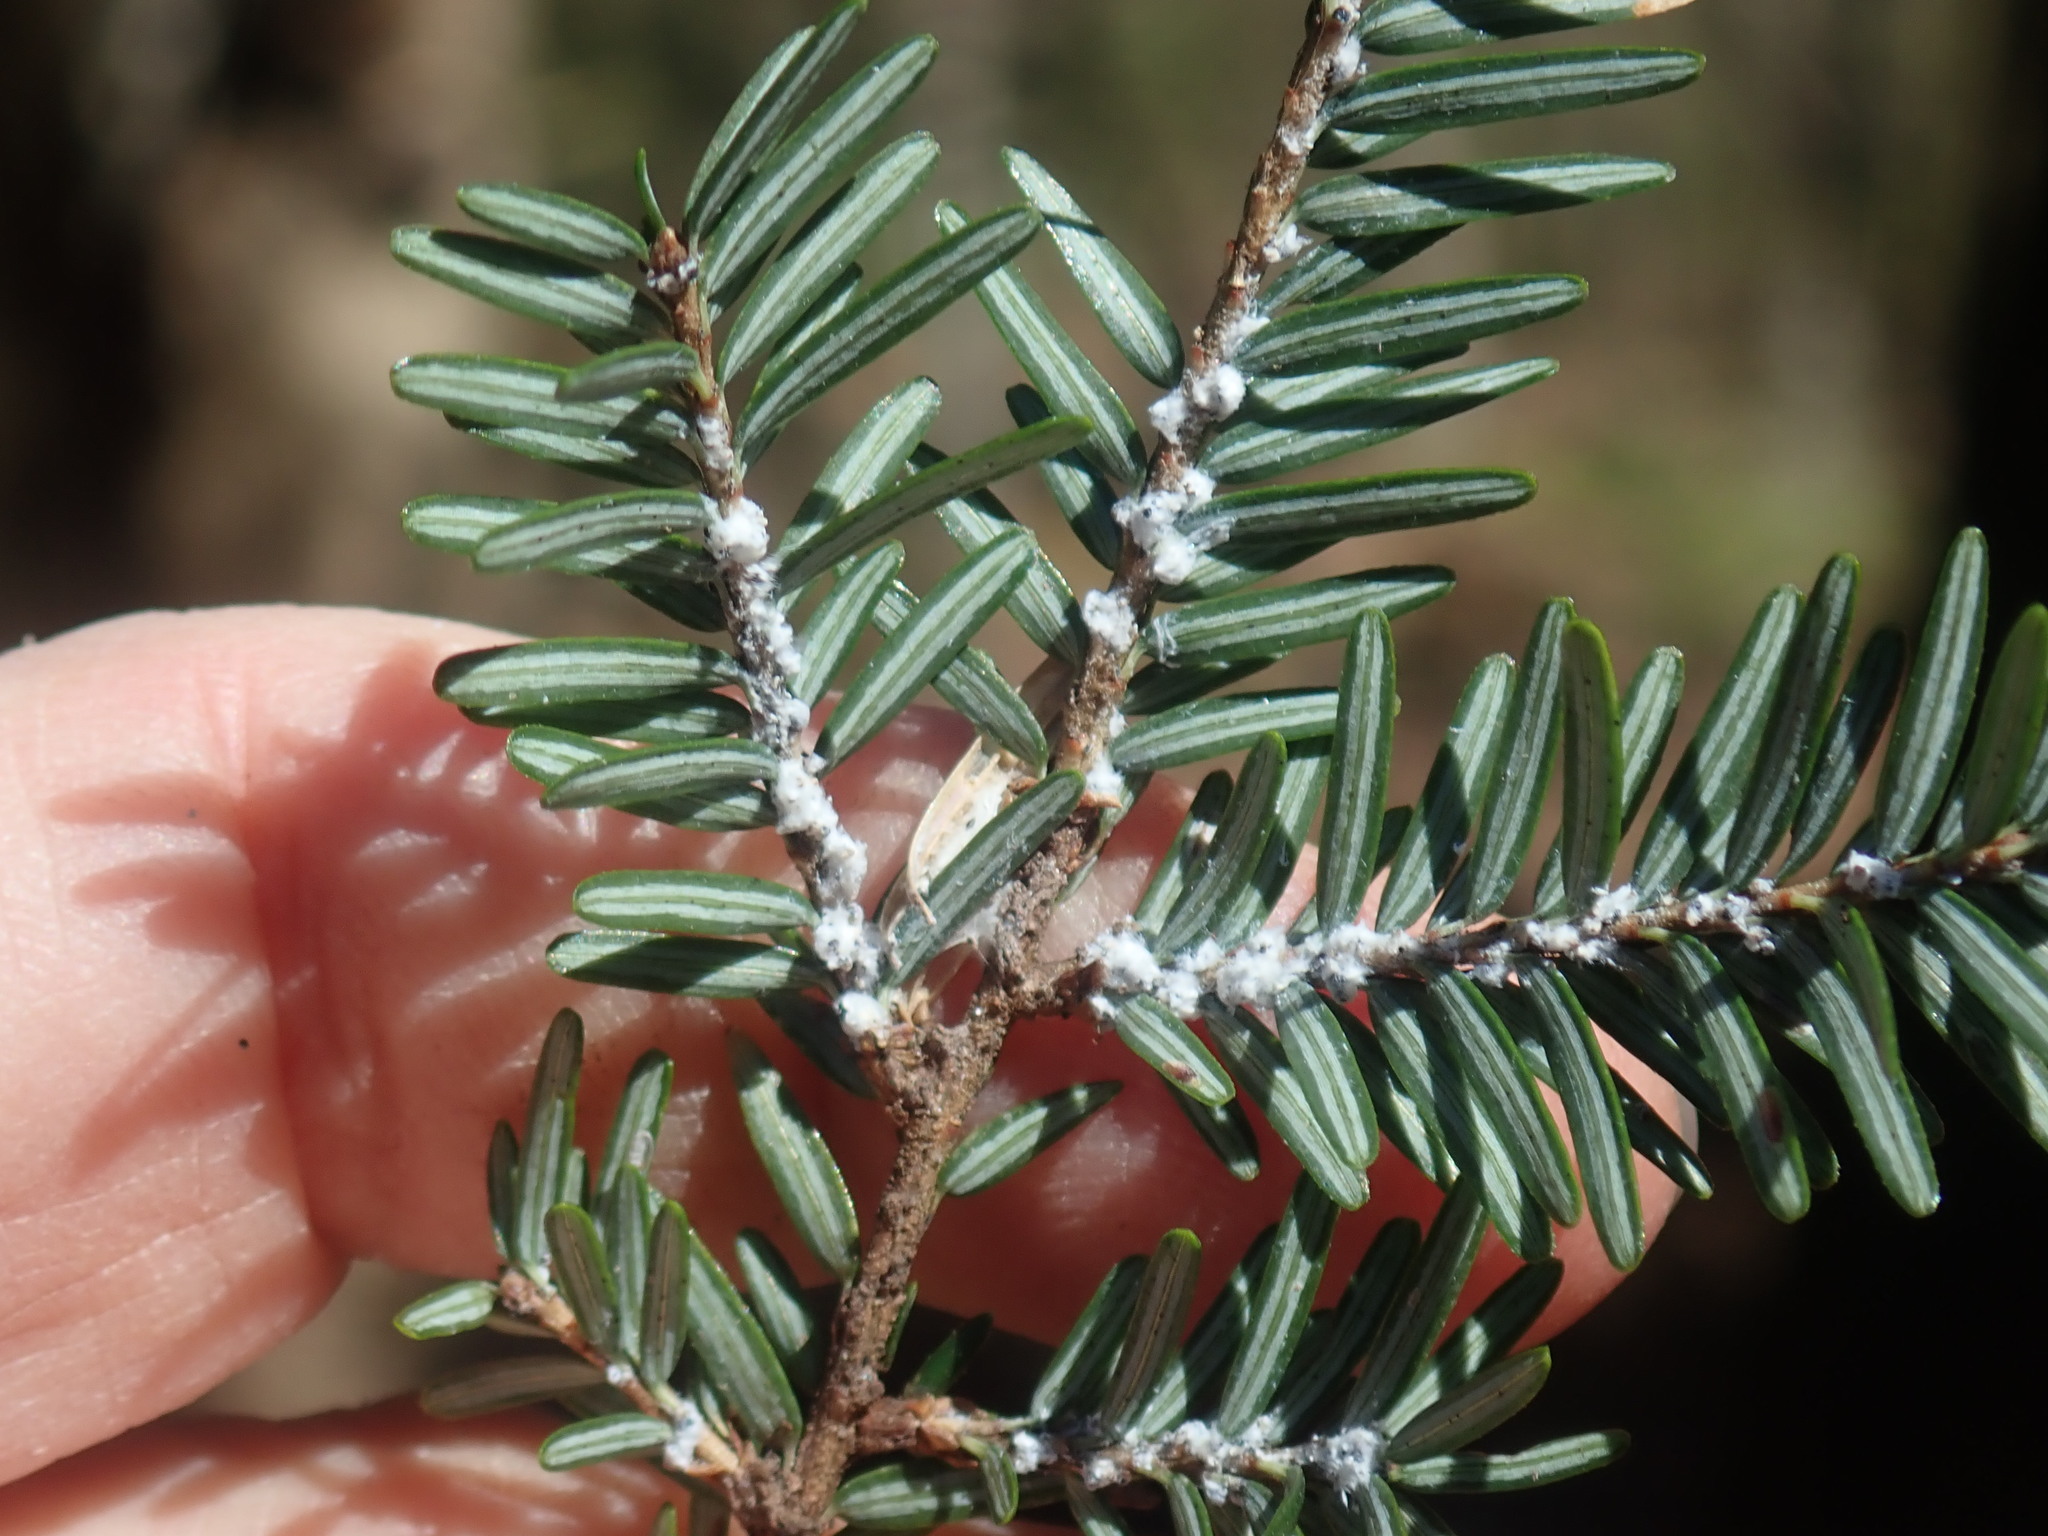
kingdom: Animalia
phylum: Arthropoda
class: Insecta
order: Hemiptera
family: Adelgidae
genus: Adelges
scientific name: Adelges tsugae
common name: Hemlock woolly adelgid
